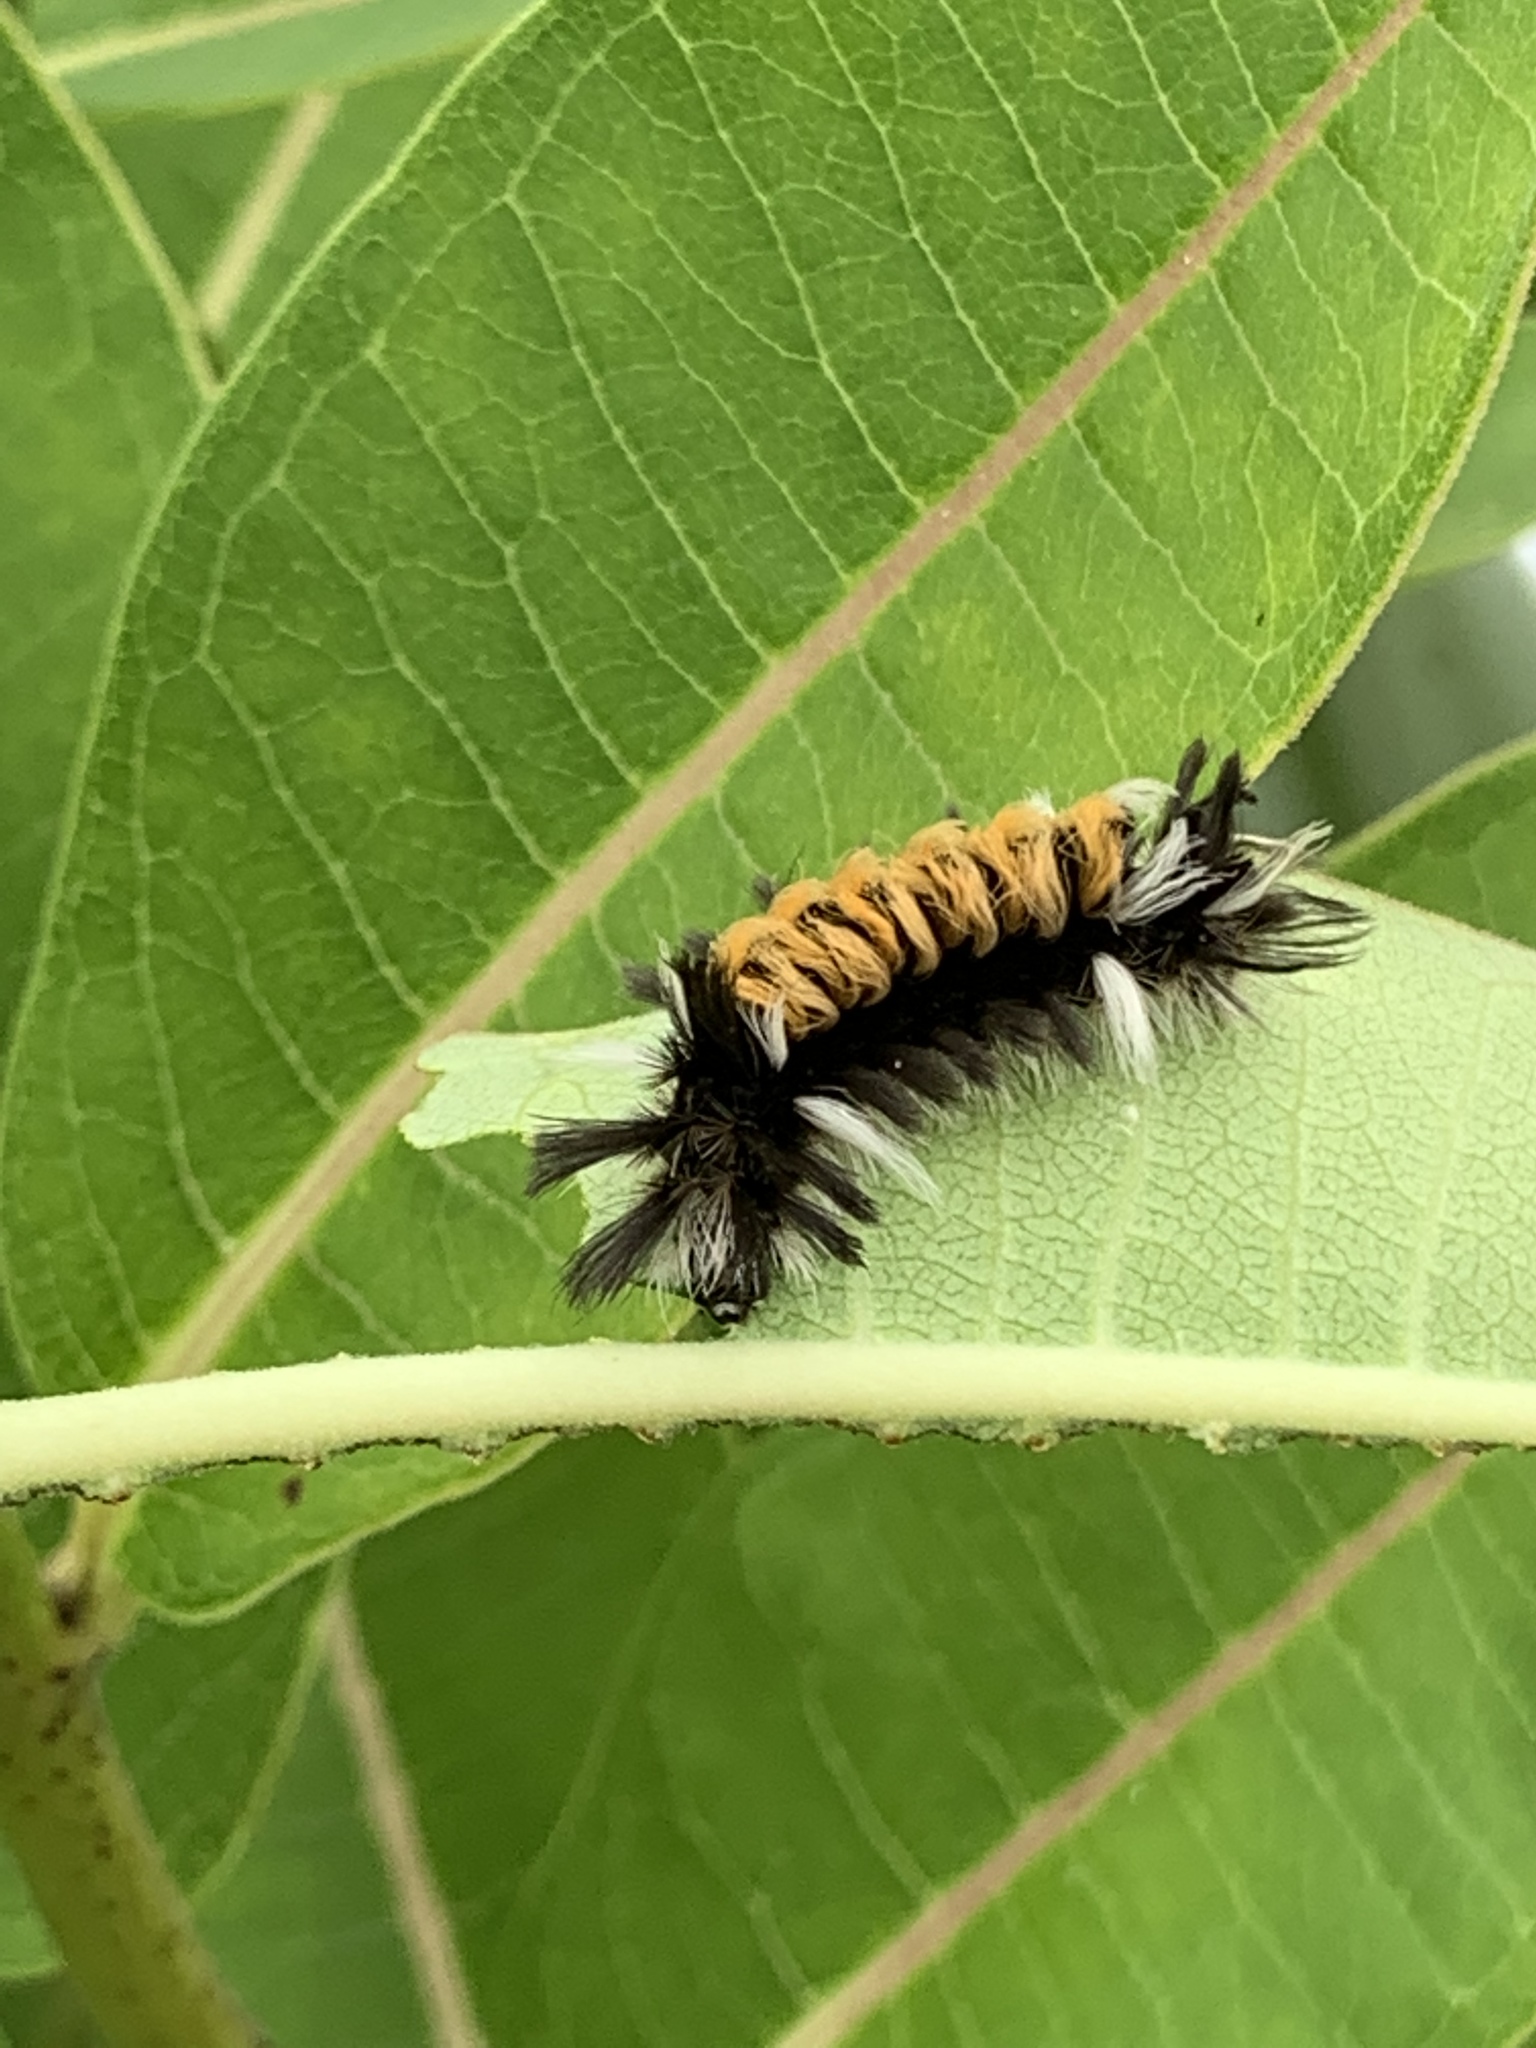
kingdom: Animalia
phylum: Arthropoda
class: Insecta
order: Lepidoptera
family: Erebidae
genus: Euchaetes
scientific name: Euchaetes egle
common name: Milkweed tussock moth
